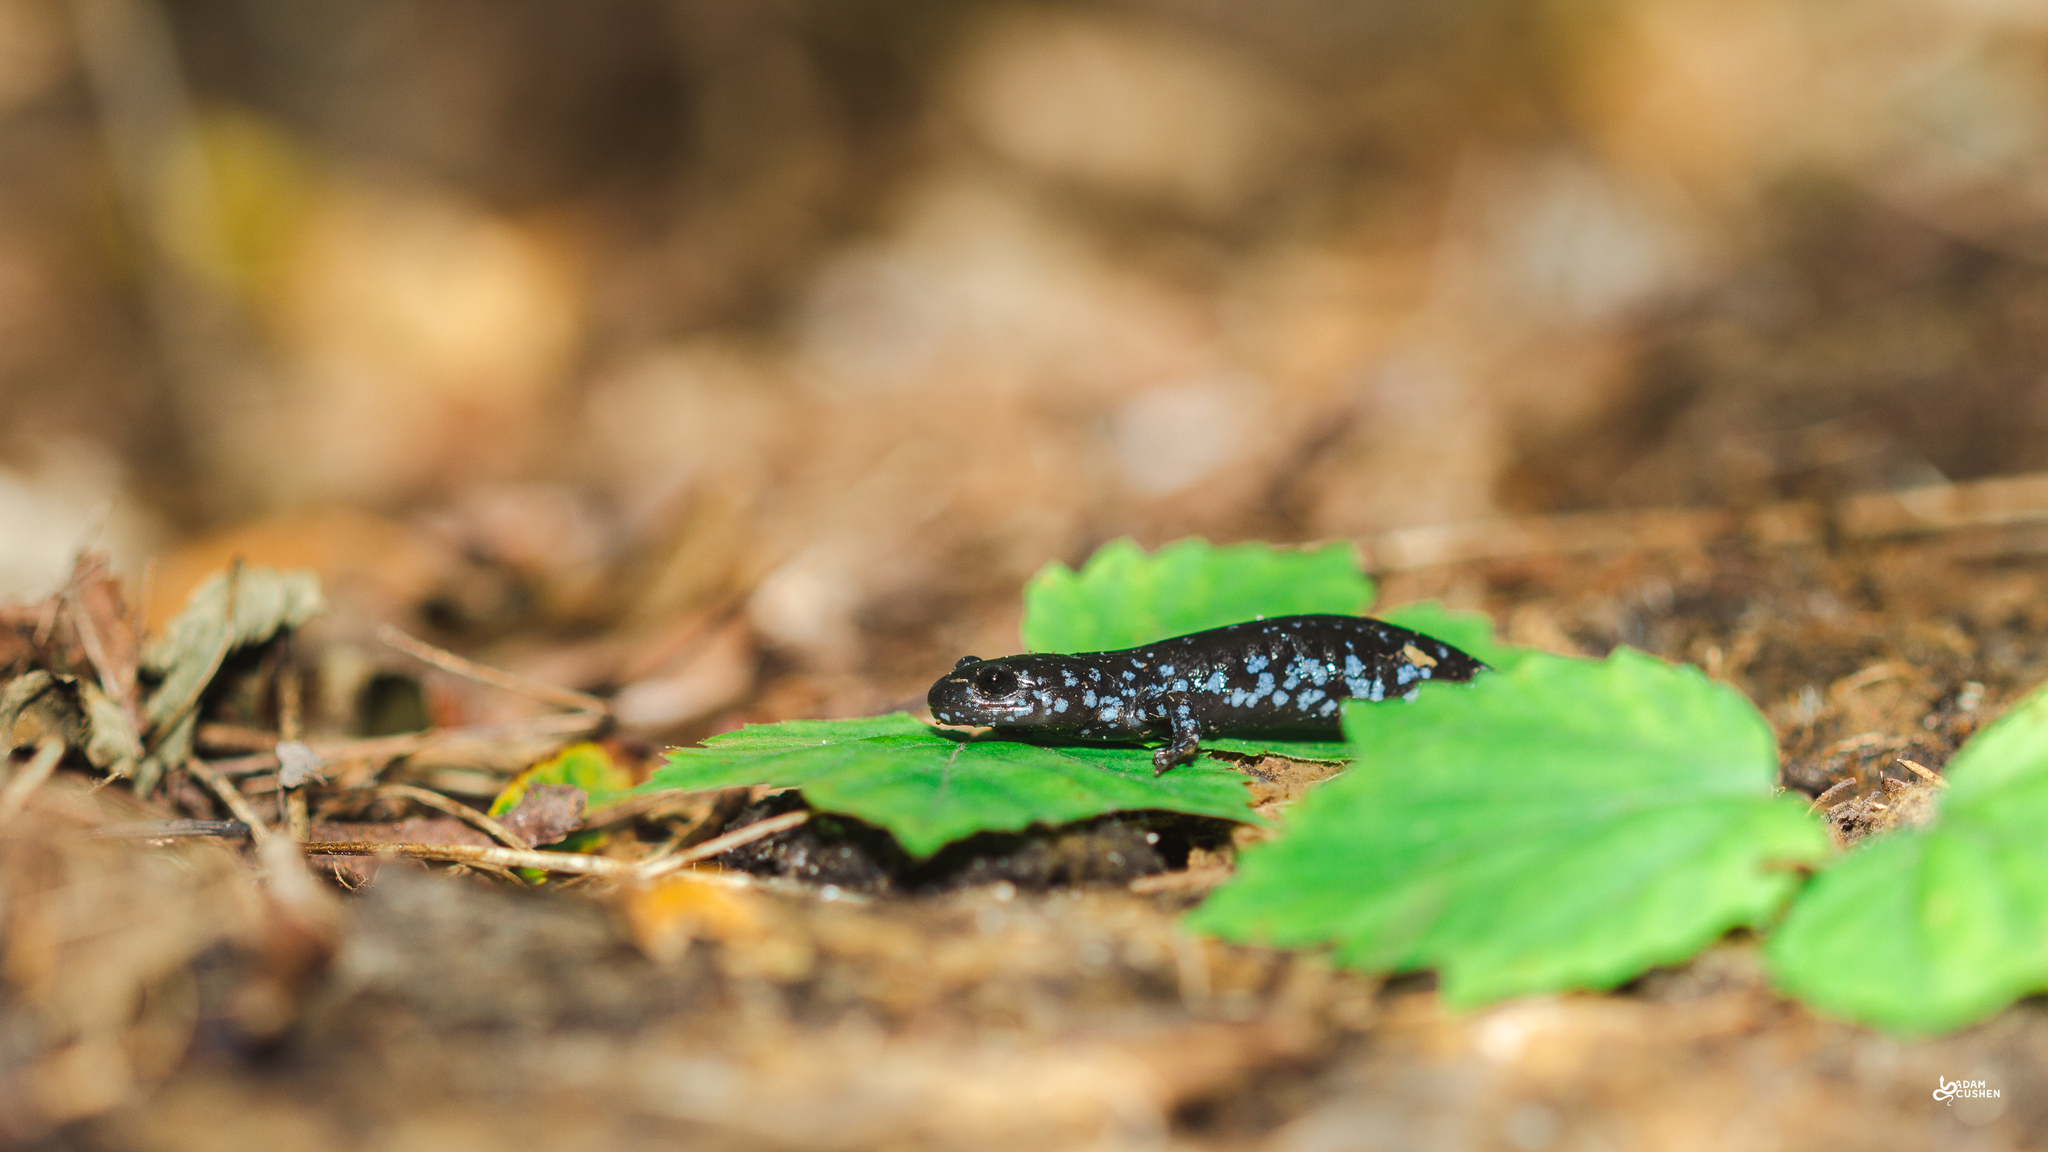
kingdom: Animalia
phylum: Chordata
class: Amphibia
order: Caudata
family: Ambystomatidae
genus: Ambystoma
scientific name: Ambystoma laterale
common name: Blue-spotted salamander
